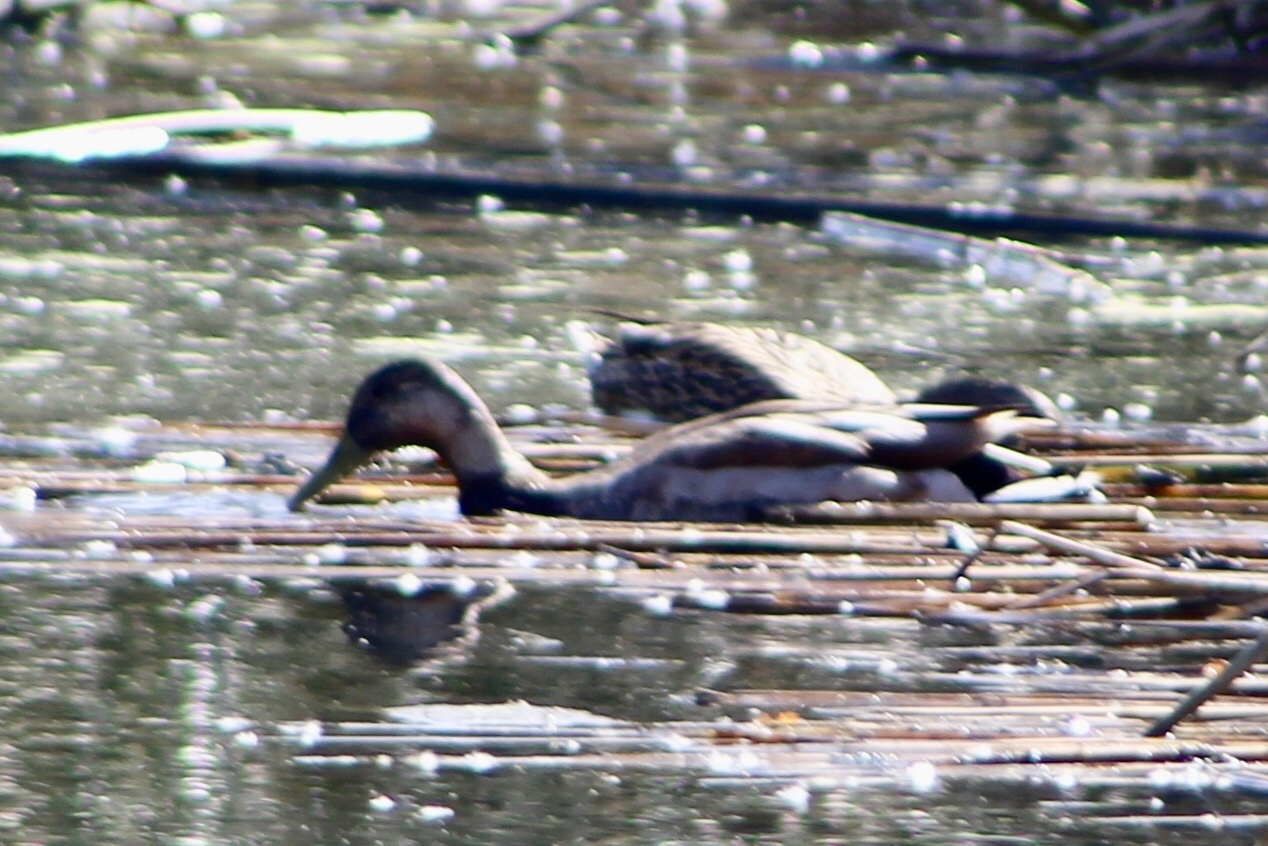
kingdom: Animalia
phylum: Chordata
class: Aves
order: Anseriformes
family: Anatidae
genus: Anas
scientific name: Anas platyrhynchos
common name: Mallard
